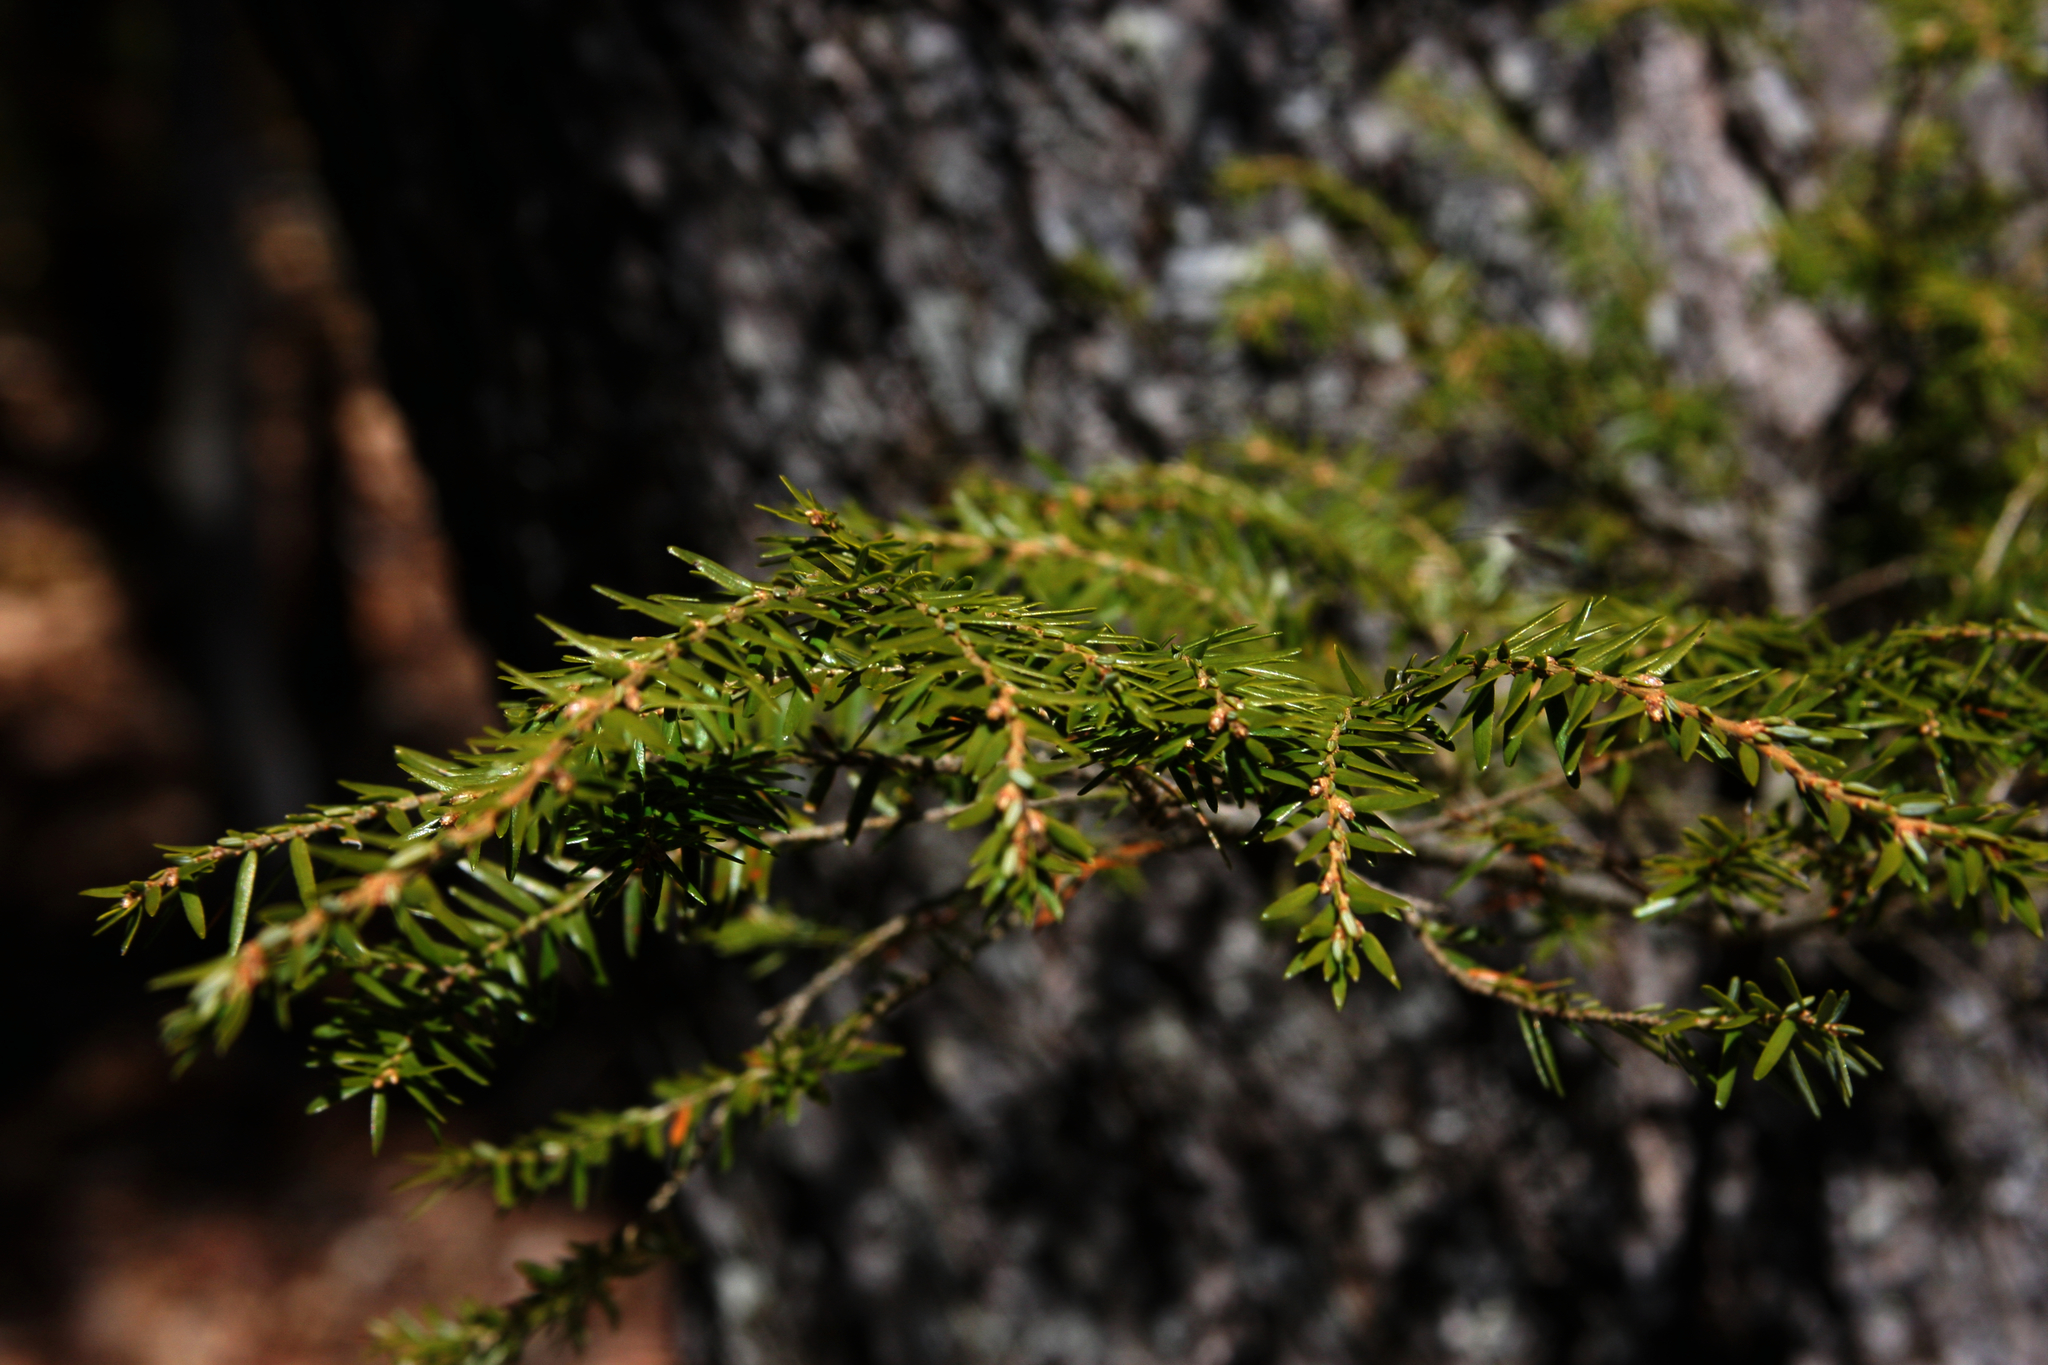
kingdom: Plantae
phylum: Tracheophyta
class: Pinopsida
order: Pinales
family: Pinaceae
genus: Tsuga
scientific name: Tsuga canadensis
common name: Eastern hemlock
